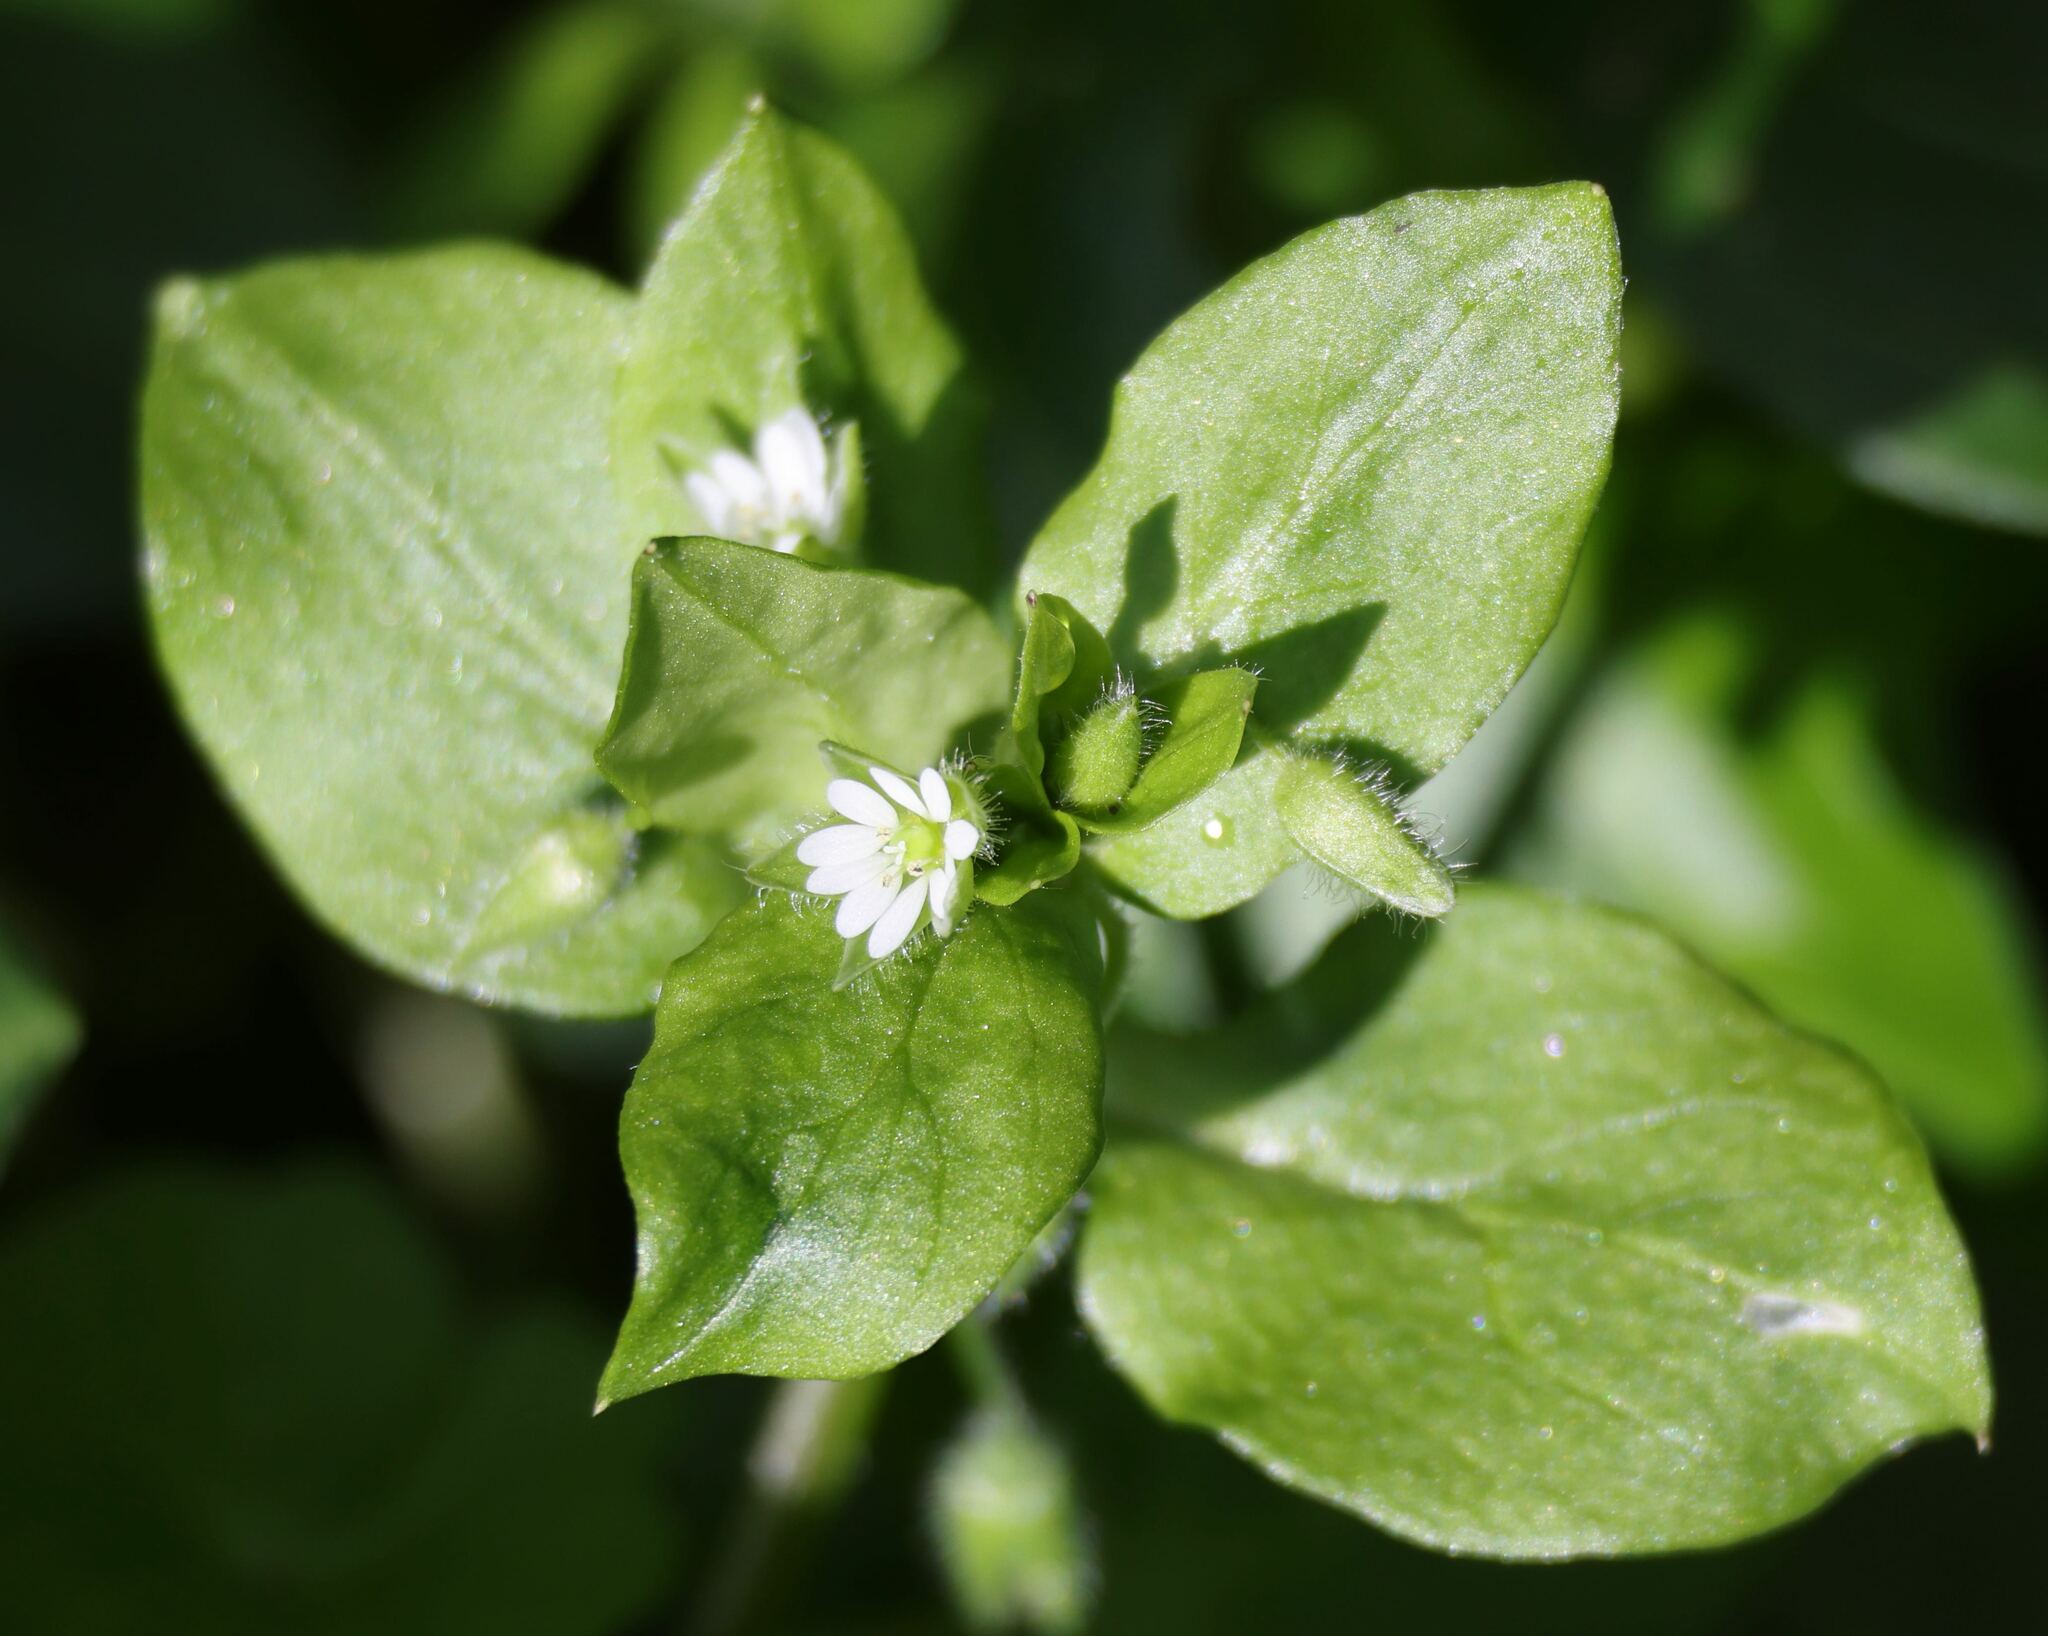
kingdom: Plantae
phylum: Tracheophyta
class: Magnoliopsida
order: Caryophyllales
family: Caryophyllaceae
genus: Stellaria
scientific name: Stellaria media
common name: Common chickweed
